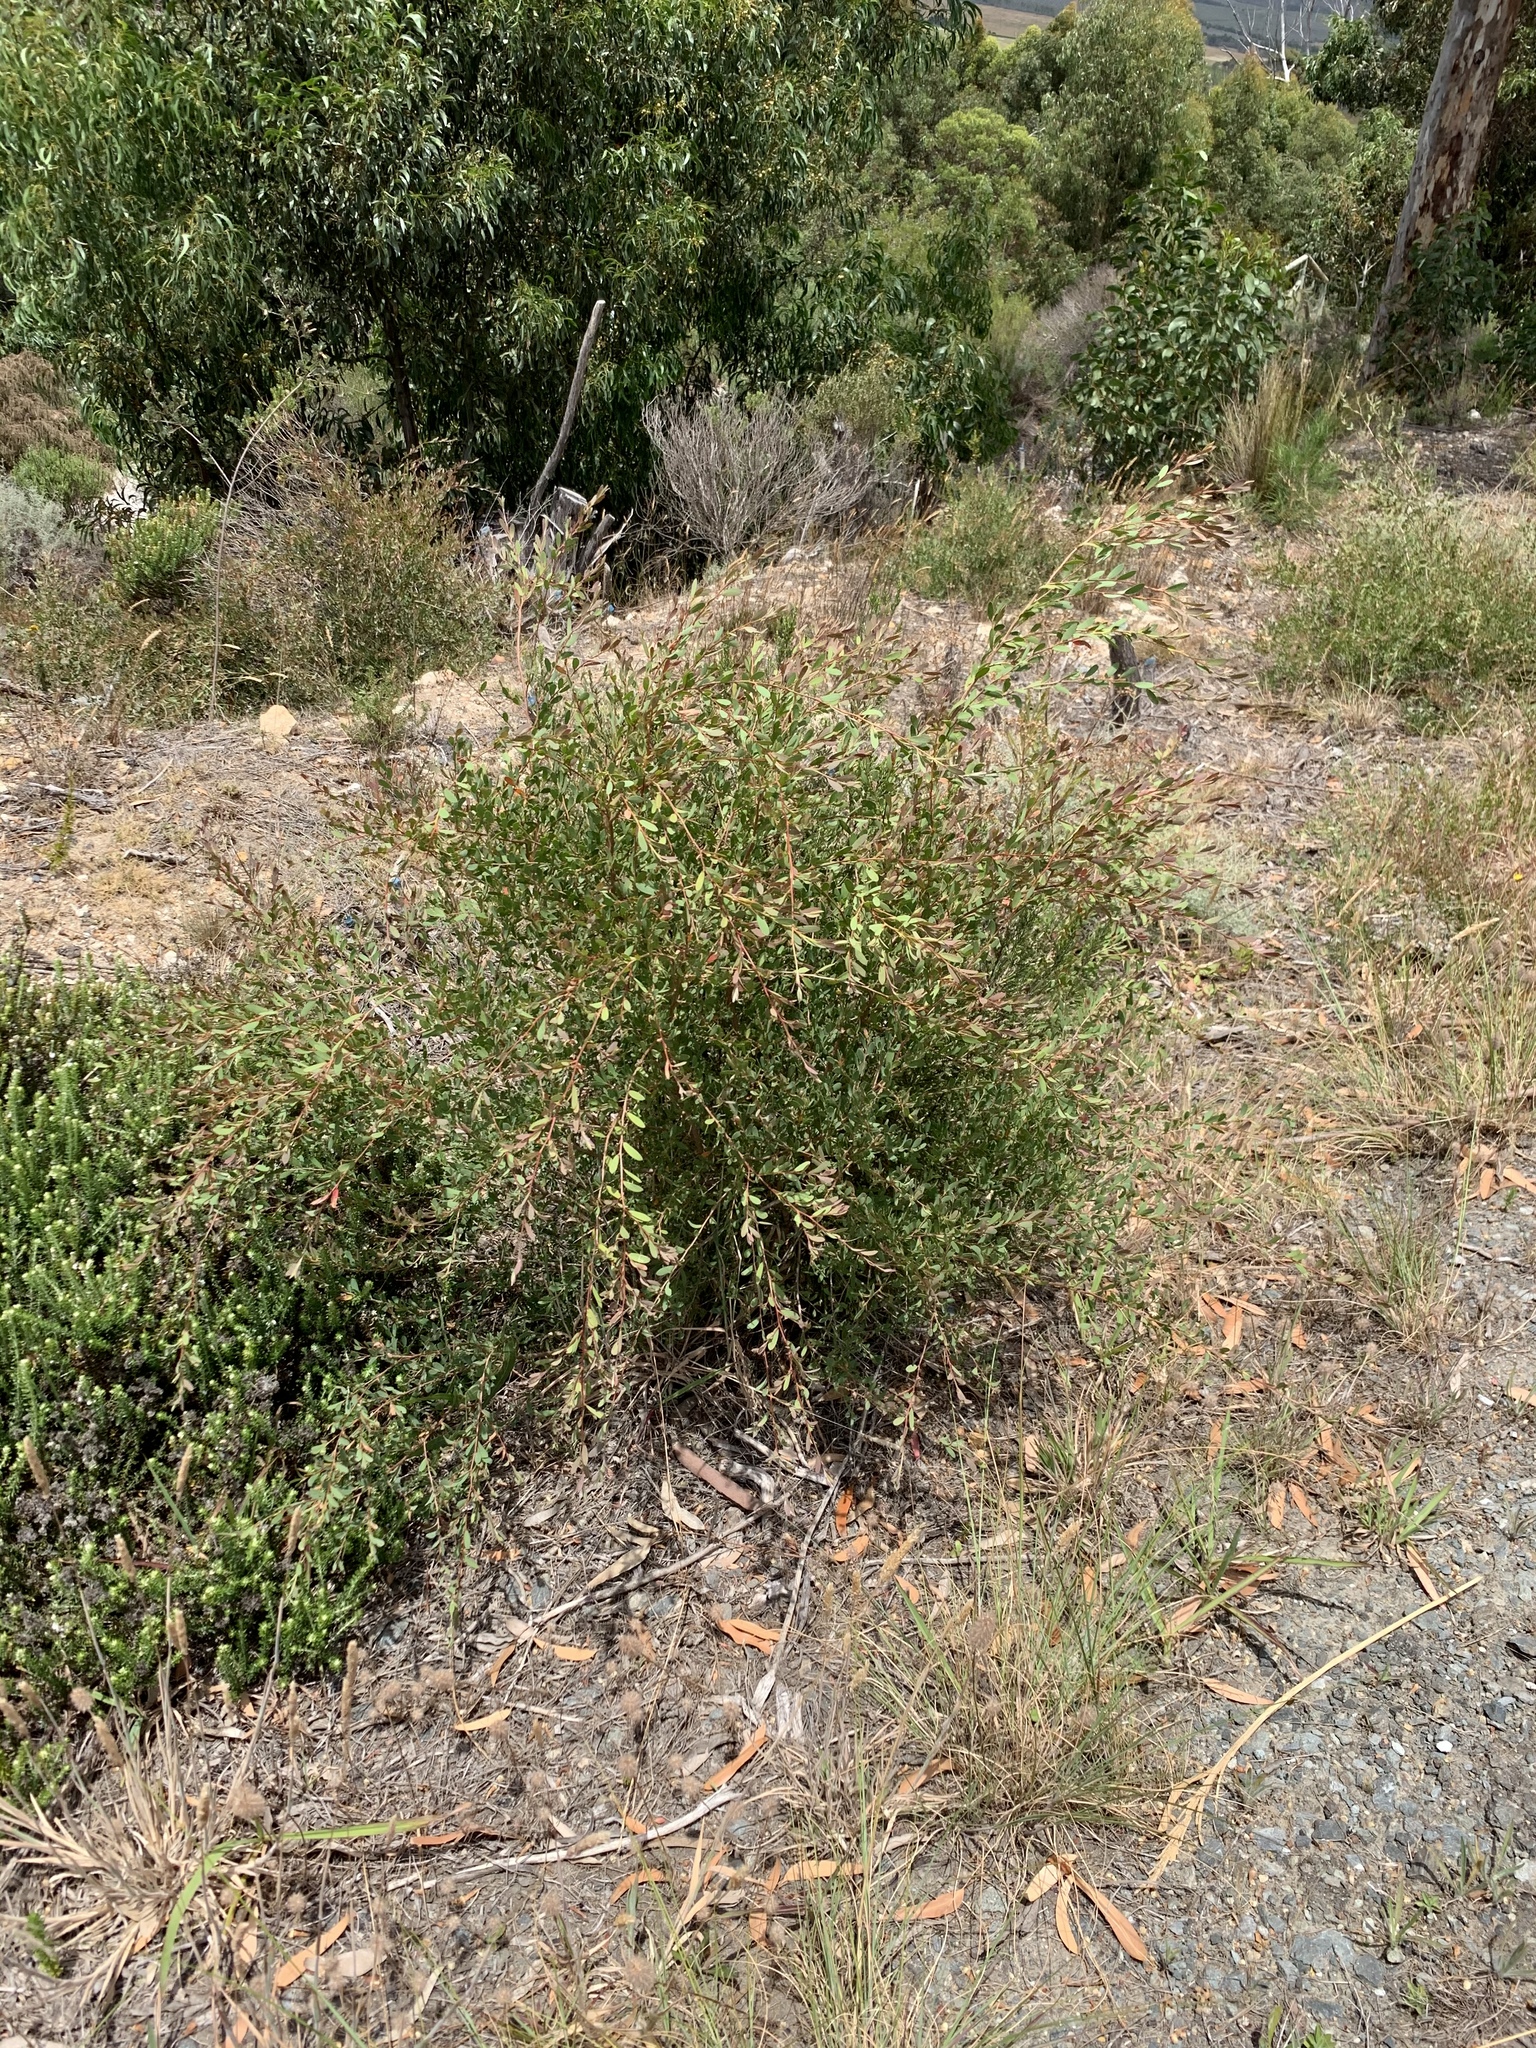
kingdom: Plantae
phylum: Tracheophyta
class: Magnoliopsida
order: Myrtales
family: Myrtaceae
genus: Leptospermum
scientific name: Leptospermum laevigatum
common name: Australian teatree
